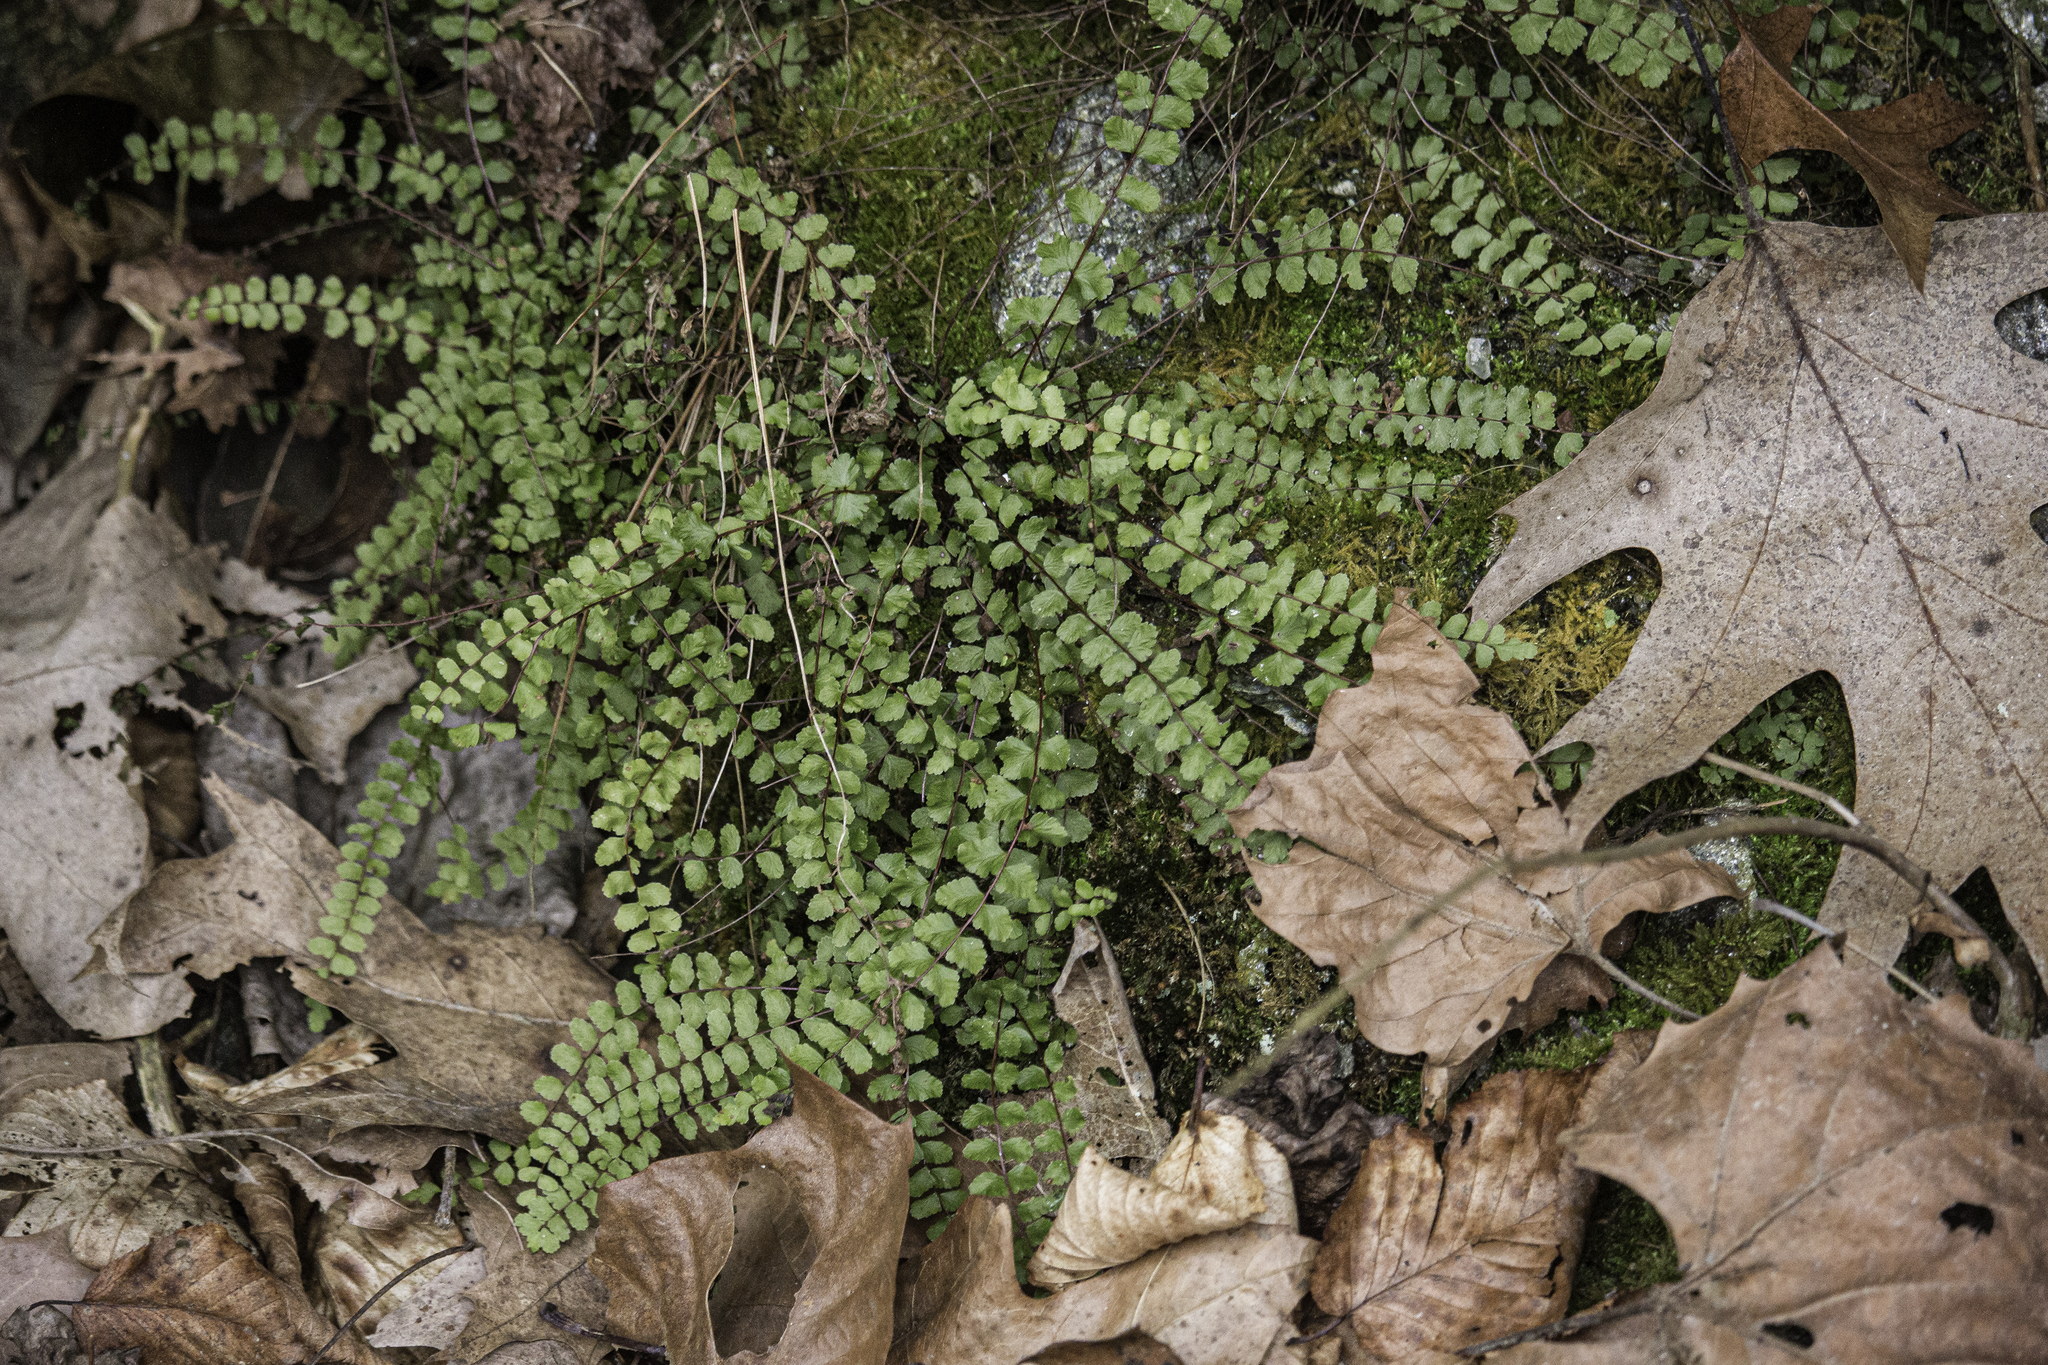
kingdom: Plantae
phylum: Tracheophyta
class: Polypodiopsida
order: Polypodiales
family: Aspleniaceae
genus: Asplenium
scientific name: Asplenium trichomanes
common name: Maidenhair spleenwort
